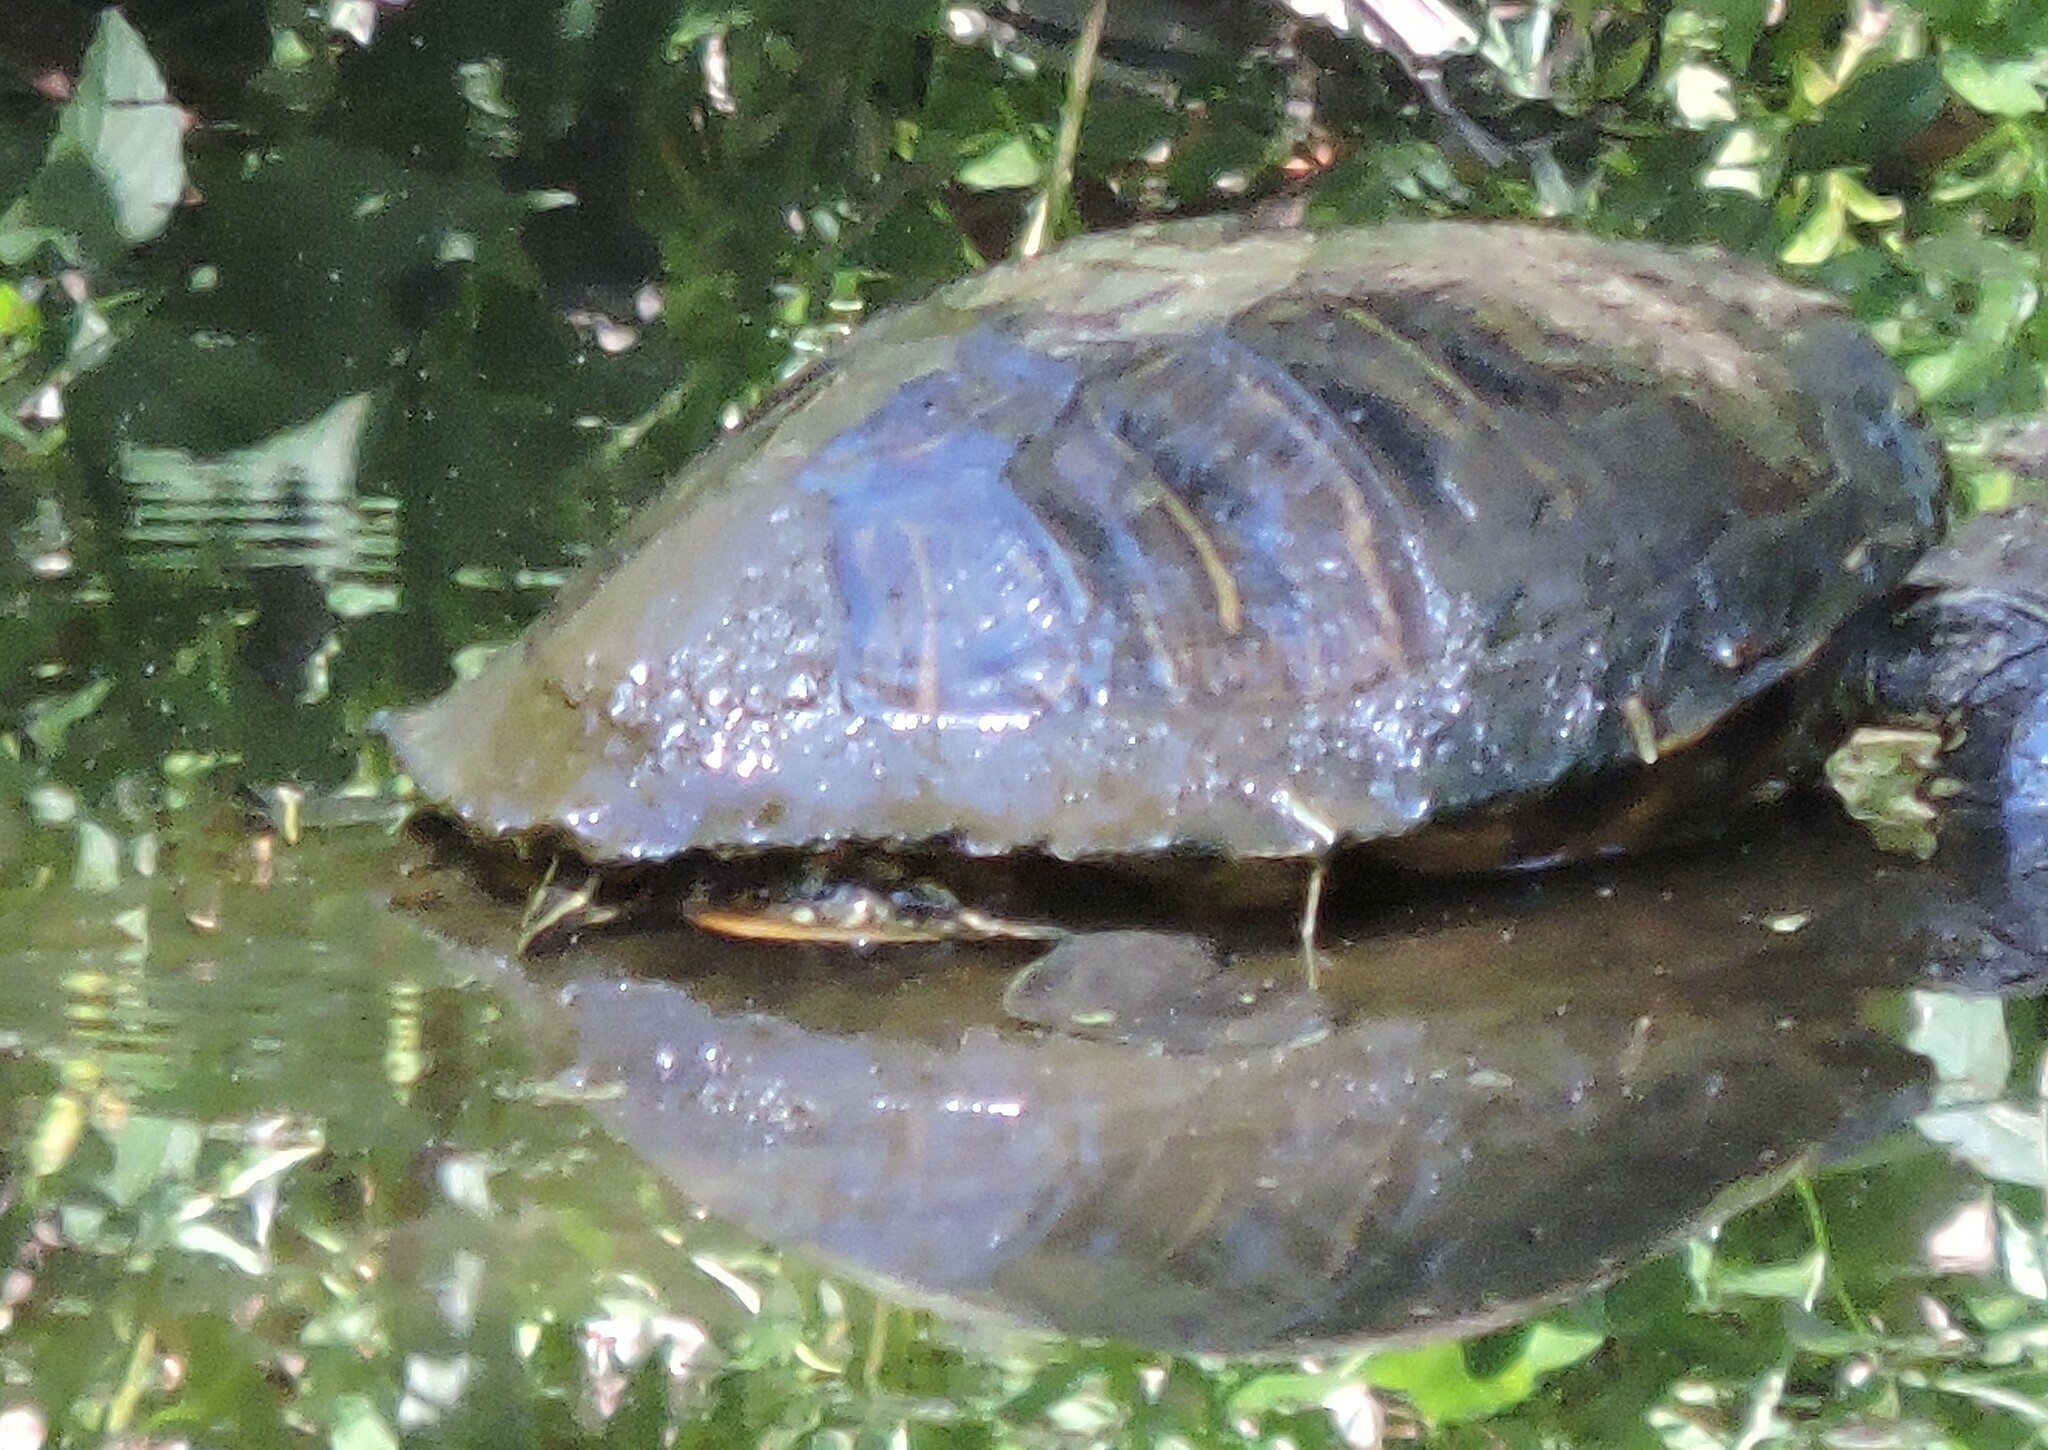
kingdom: Animalia
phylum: Chordata
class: Testudines
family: Emydidae
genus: Trachemys
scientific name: Trachemys scripta
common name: Slider
